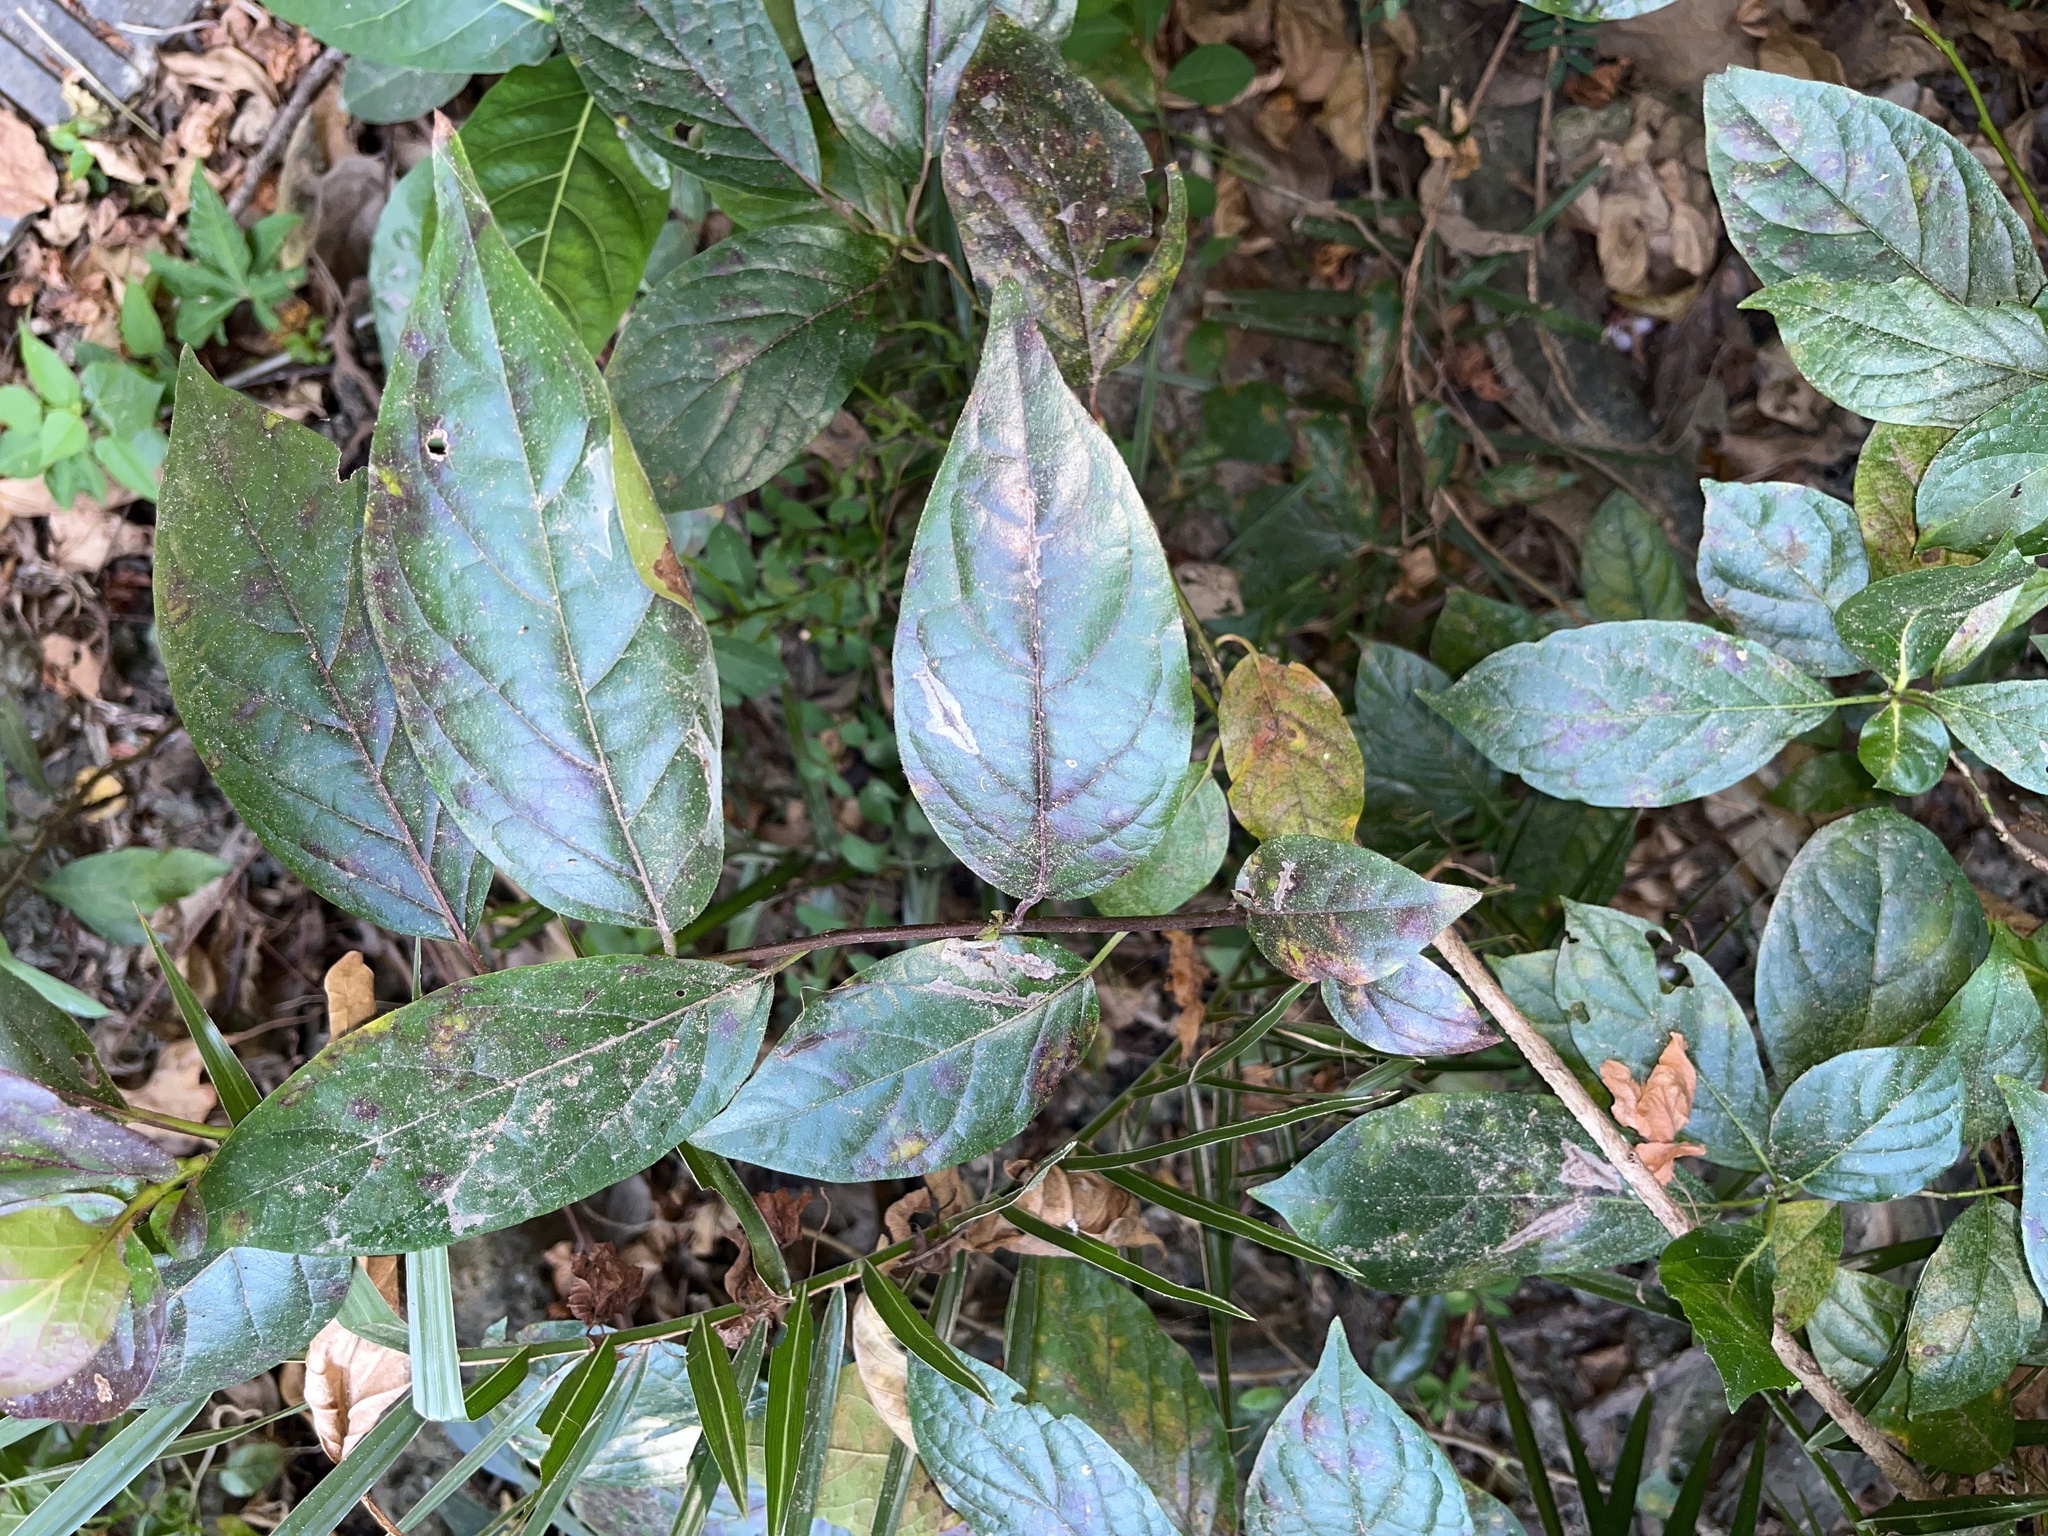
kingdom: Plantae
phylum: Tracheophyta
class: Magnoliopsida
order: Boraginales
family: Ehretiaceae
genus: Ehretia
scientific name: Ehretia resinosa
